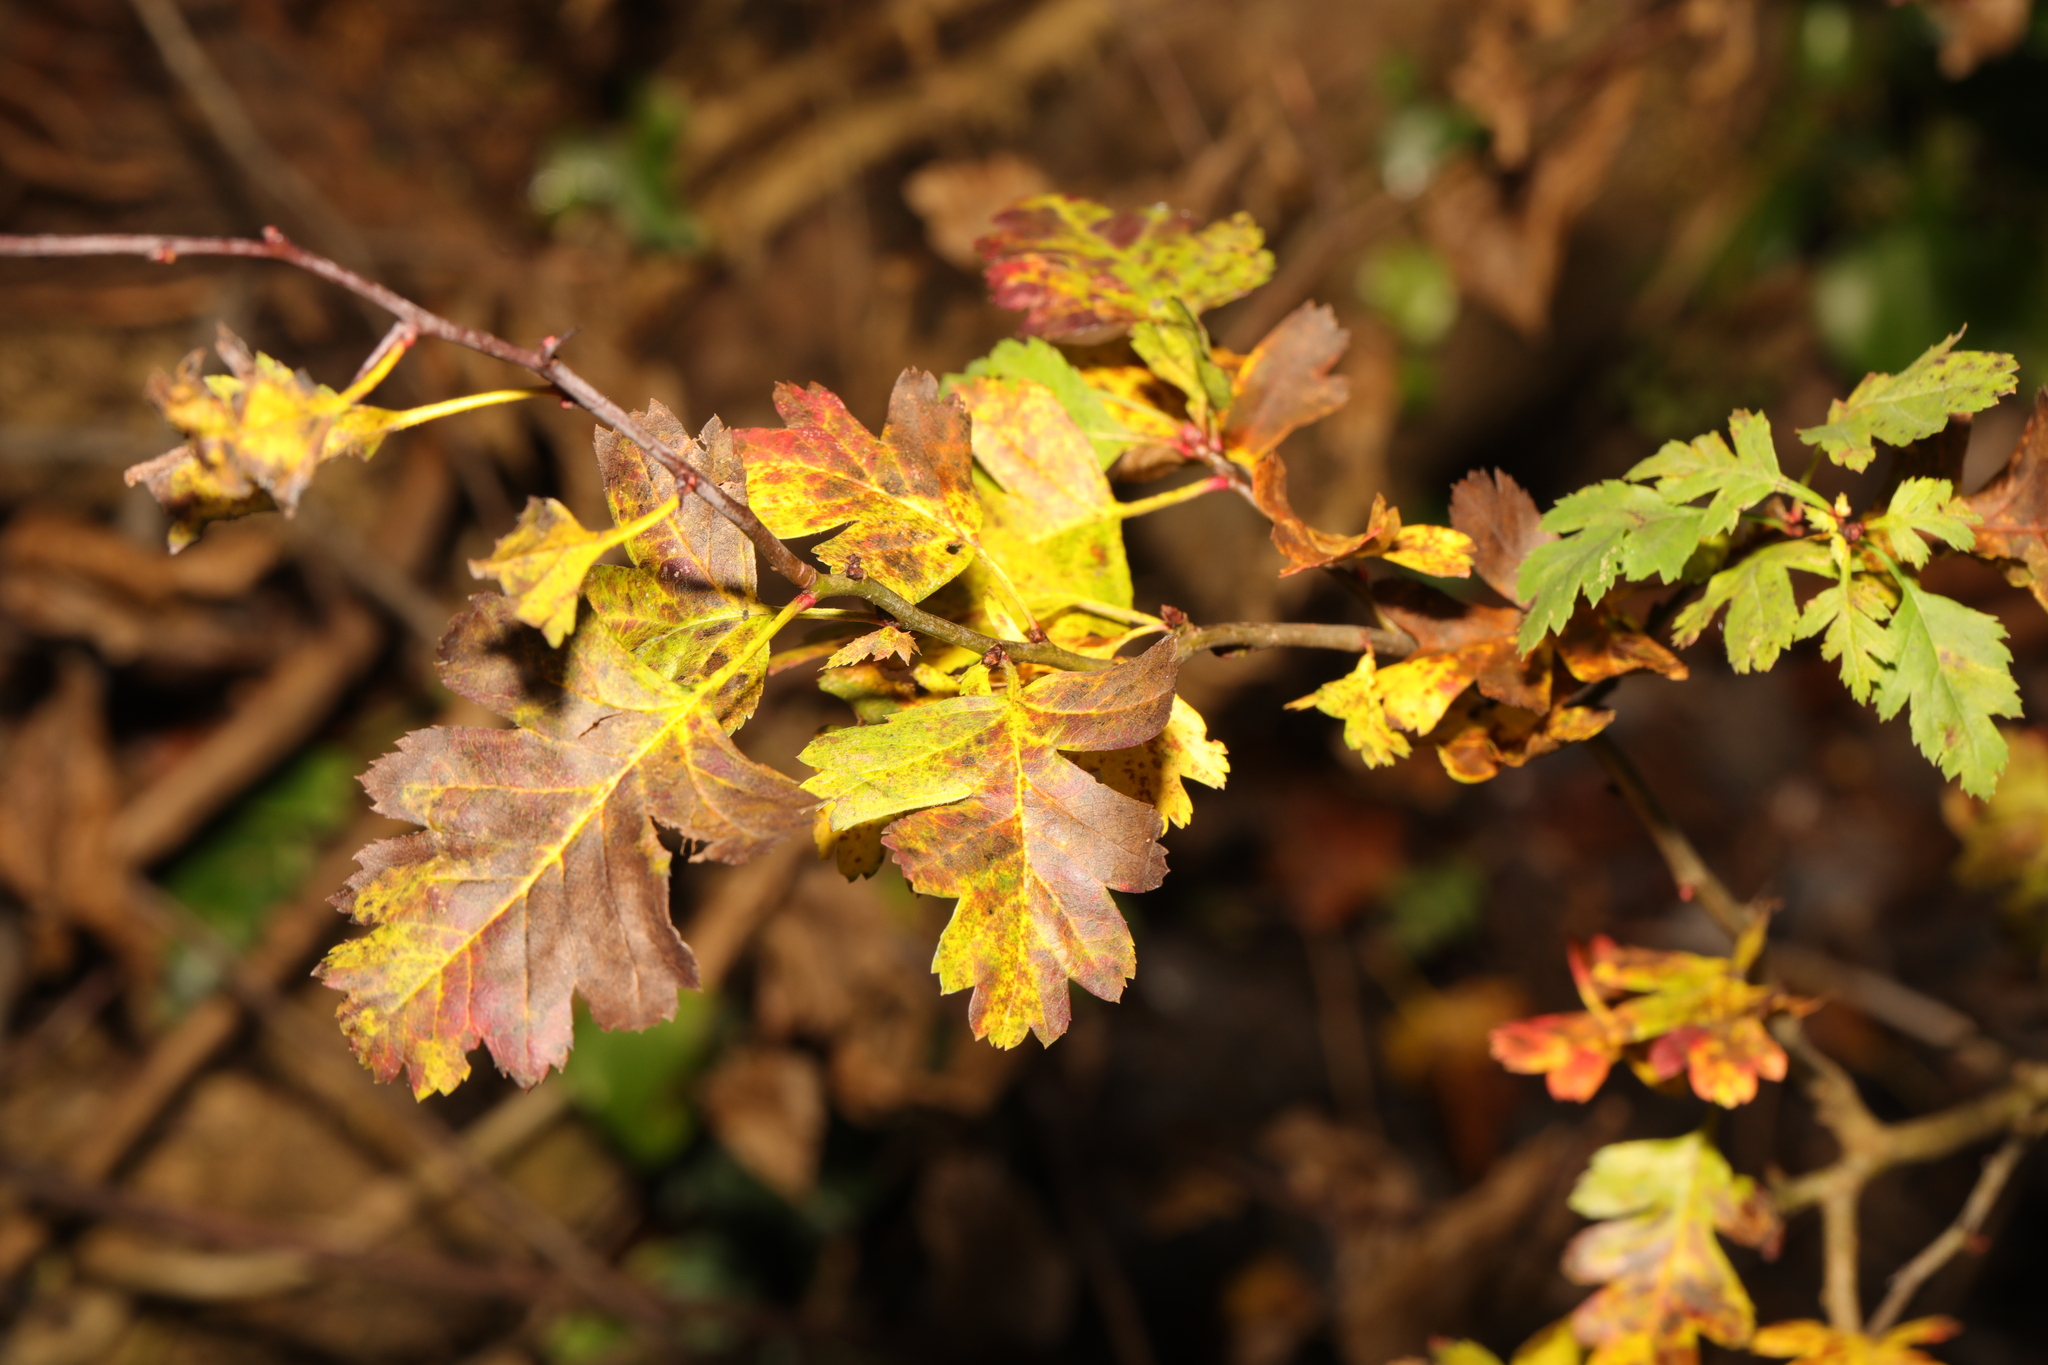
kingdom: Plantae
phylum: Tracheophyta
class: Magnoliopsida
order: Rosales
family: Rosaceae
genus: Crataegus
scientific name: Crataegus monogyna
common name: Hawthorn
